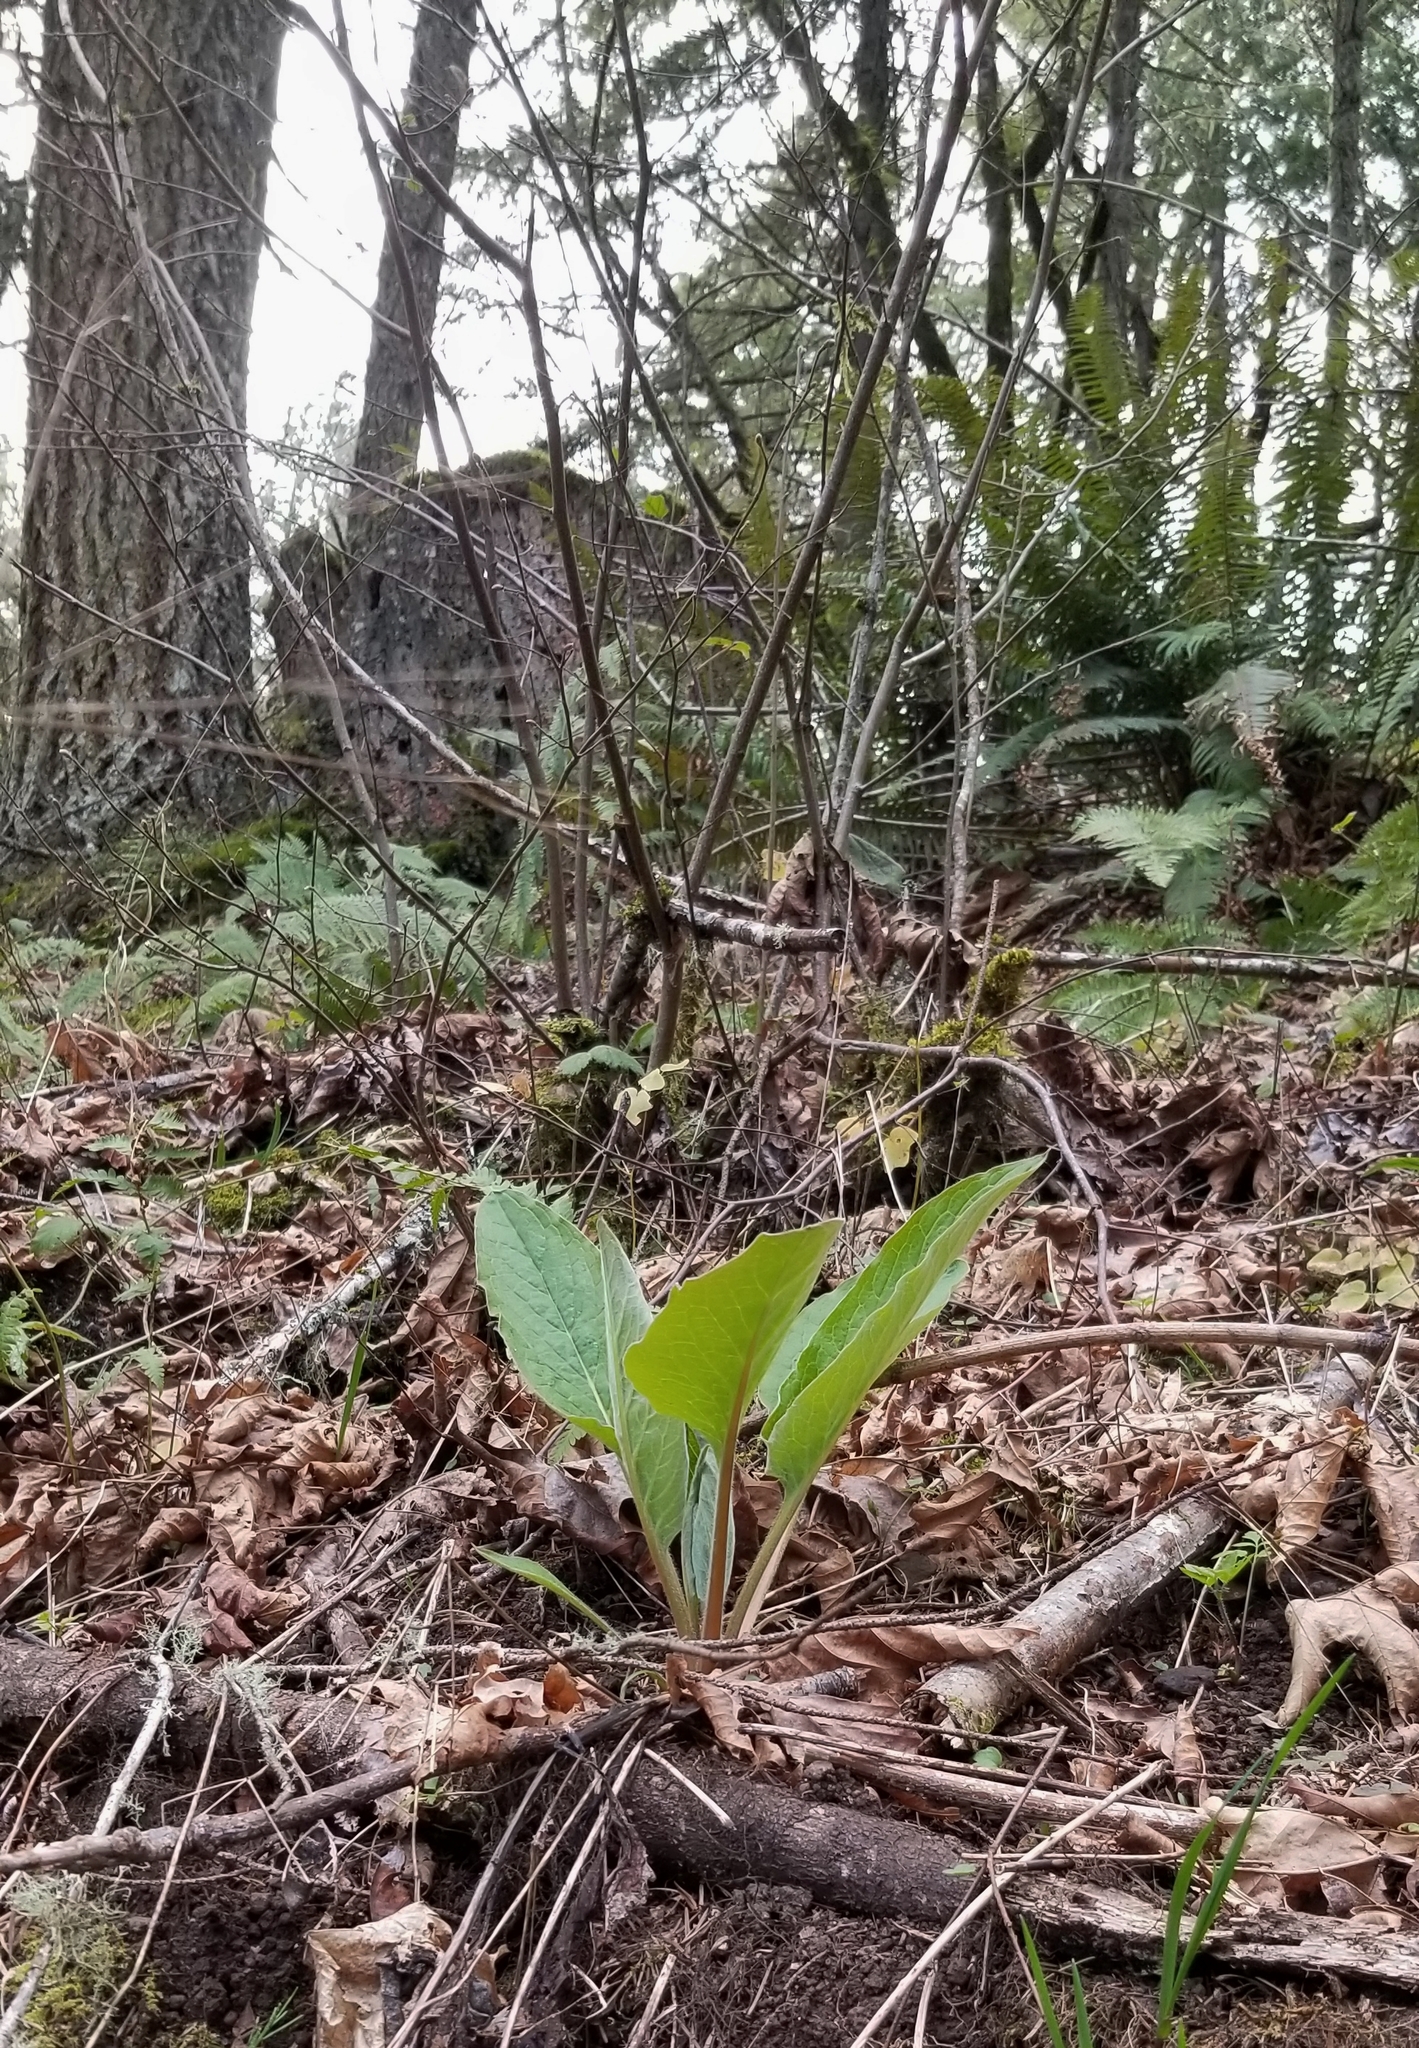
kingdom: Plantae
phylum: Tracheophyta
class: Magnoliopsida
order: Boraginales
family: Boraginaceae
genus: Adelinia
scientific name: Adelinia grande
